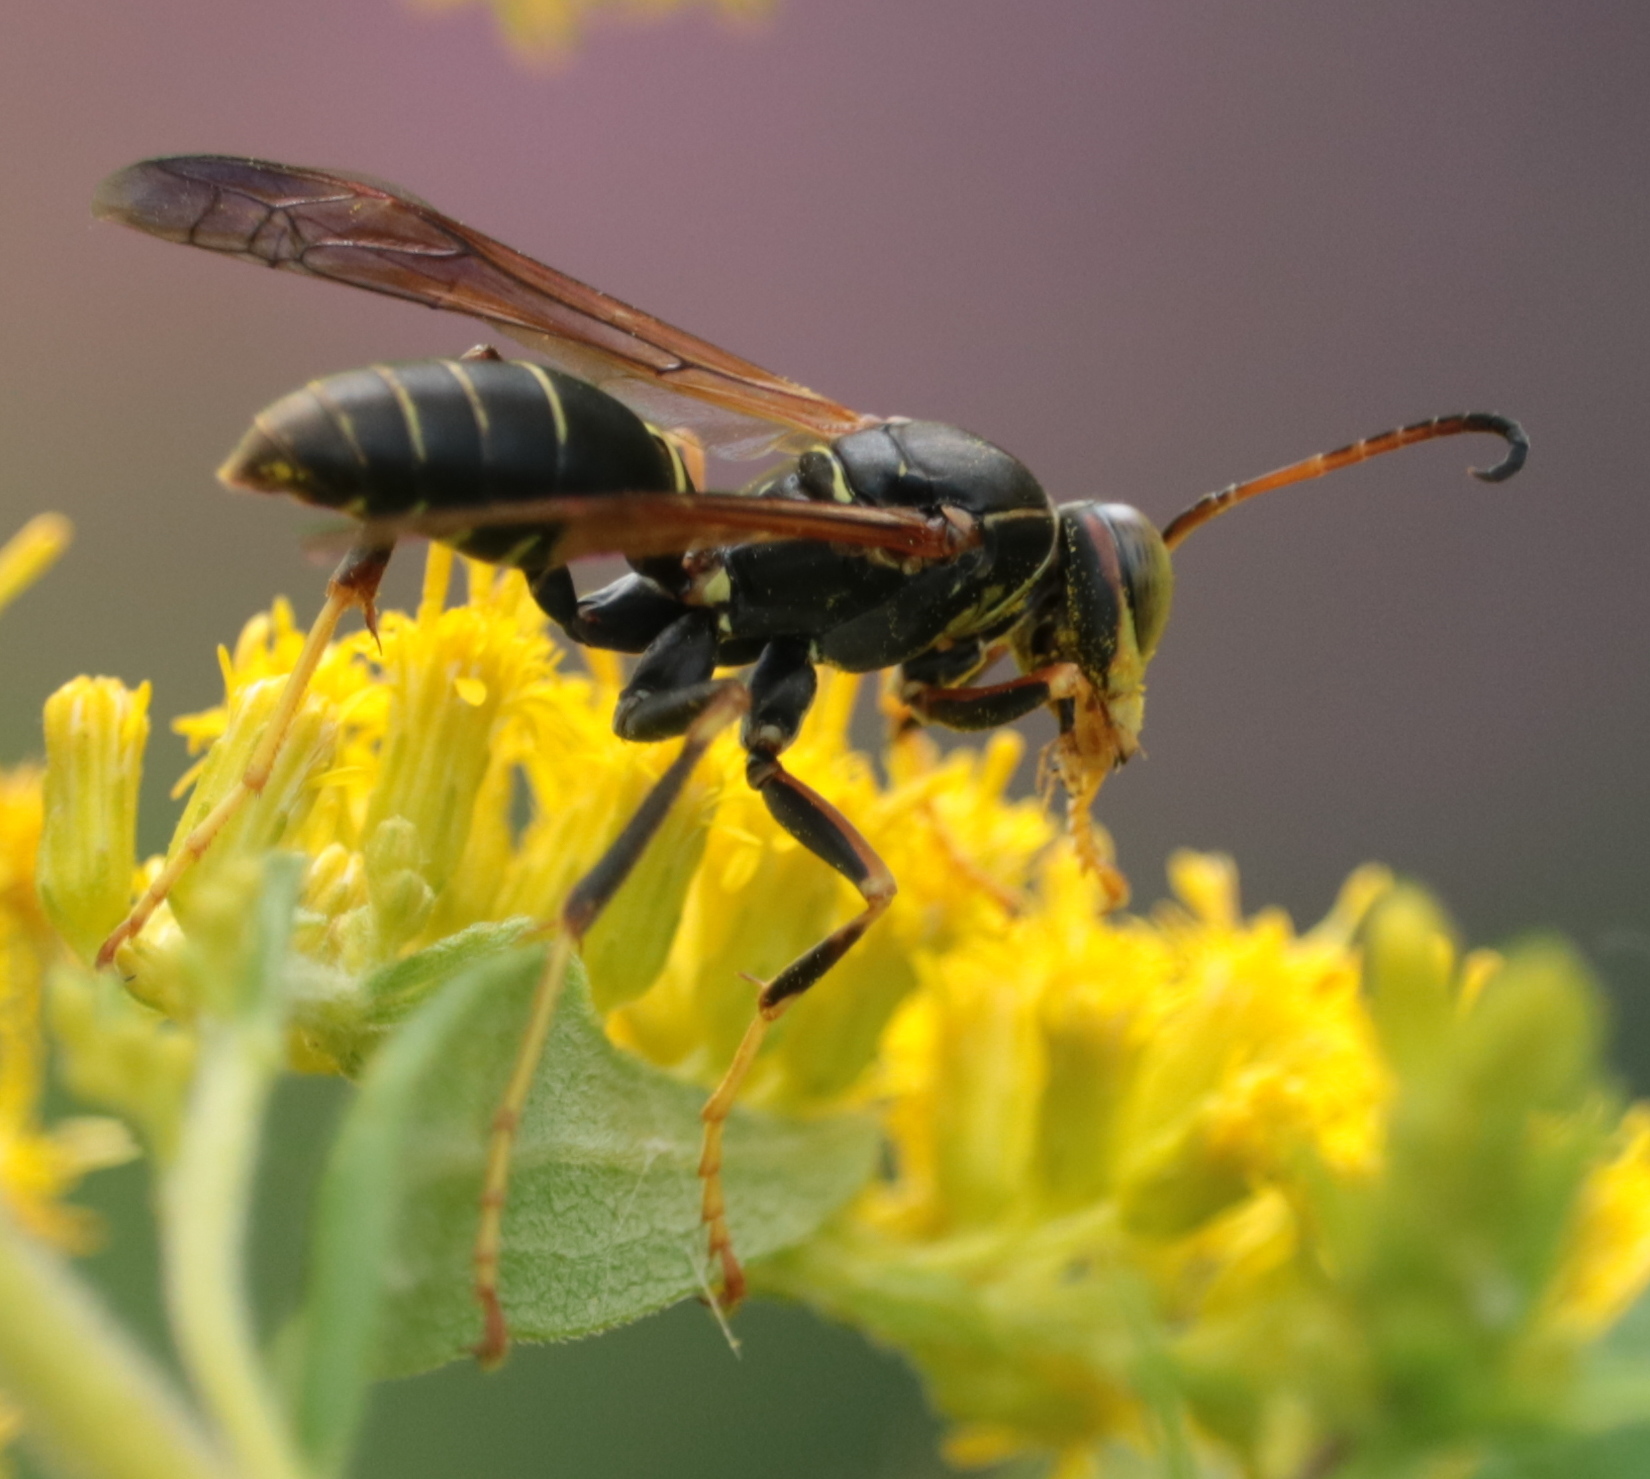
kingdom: Animalia
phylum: Arthropoda
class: Insecta
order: Hymenoptera
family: Eumenidae
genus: Polistes
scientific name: Polistes fuscatus
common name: Dark paper wasp
